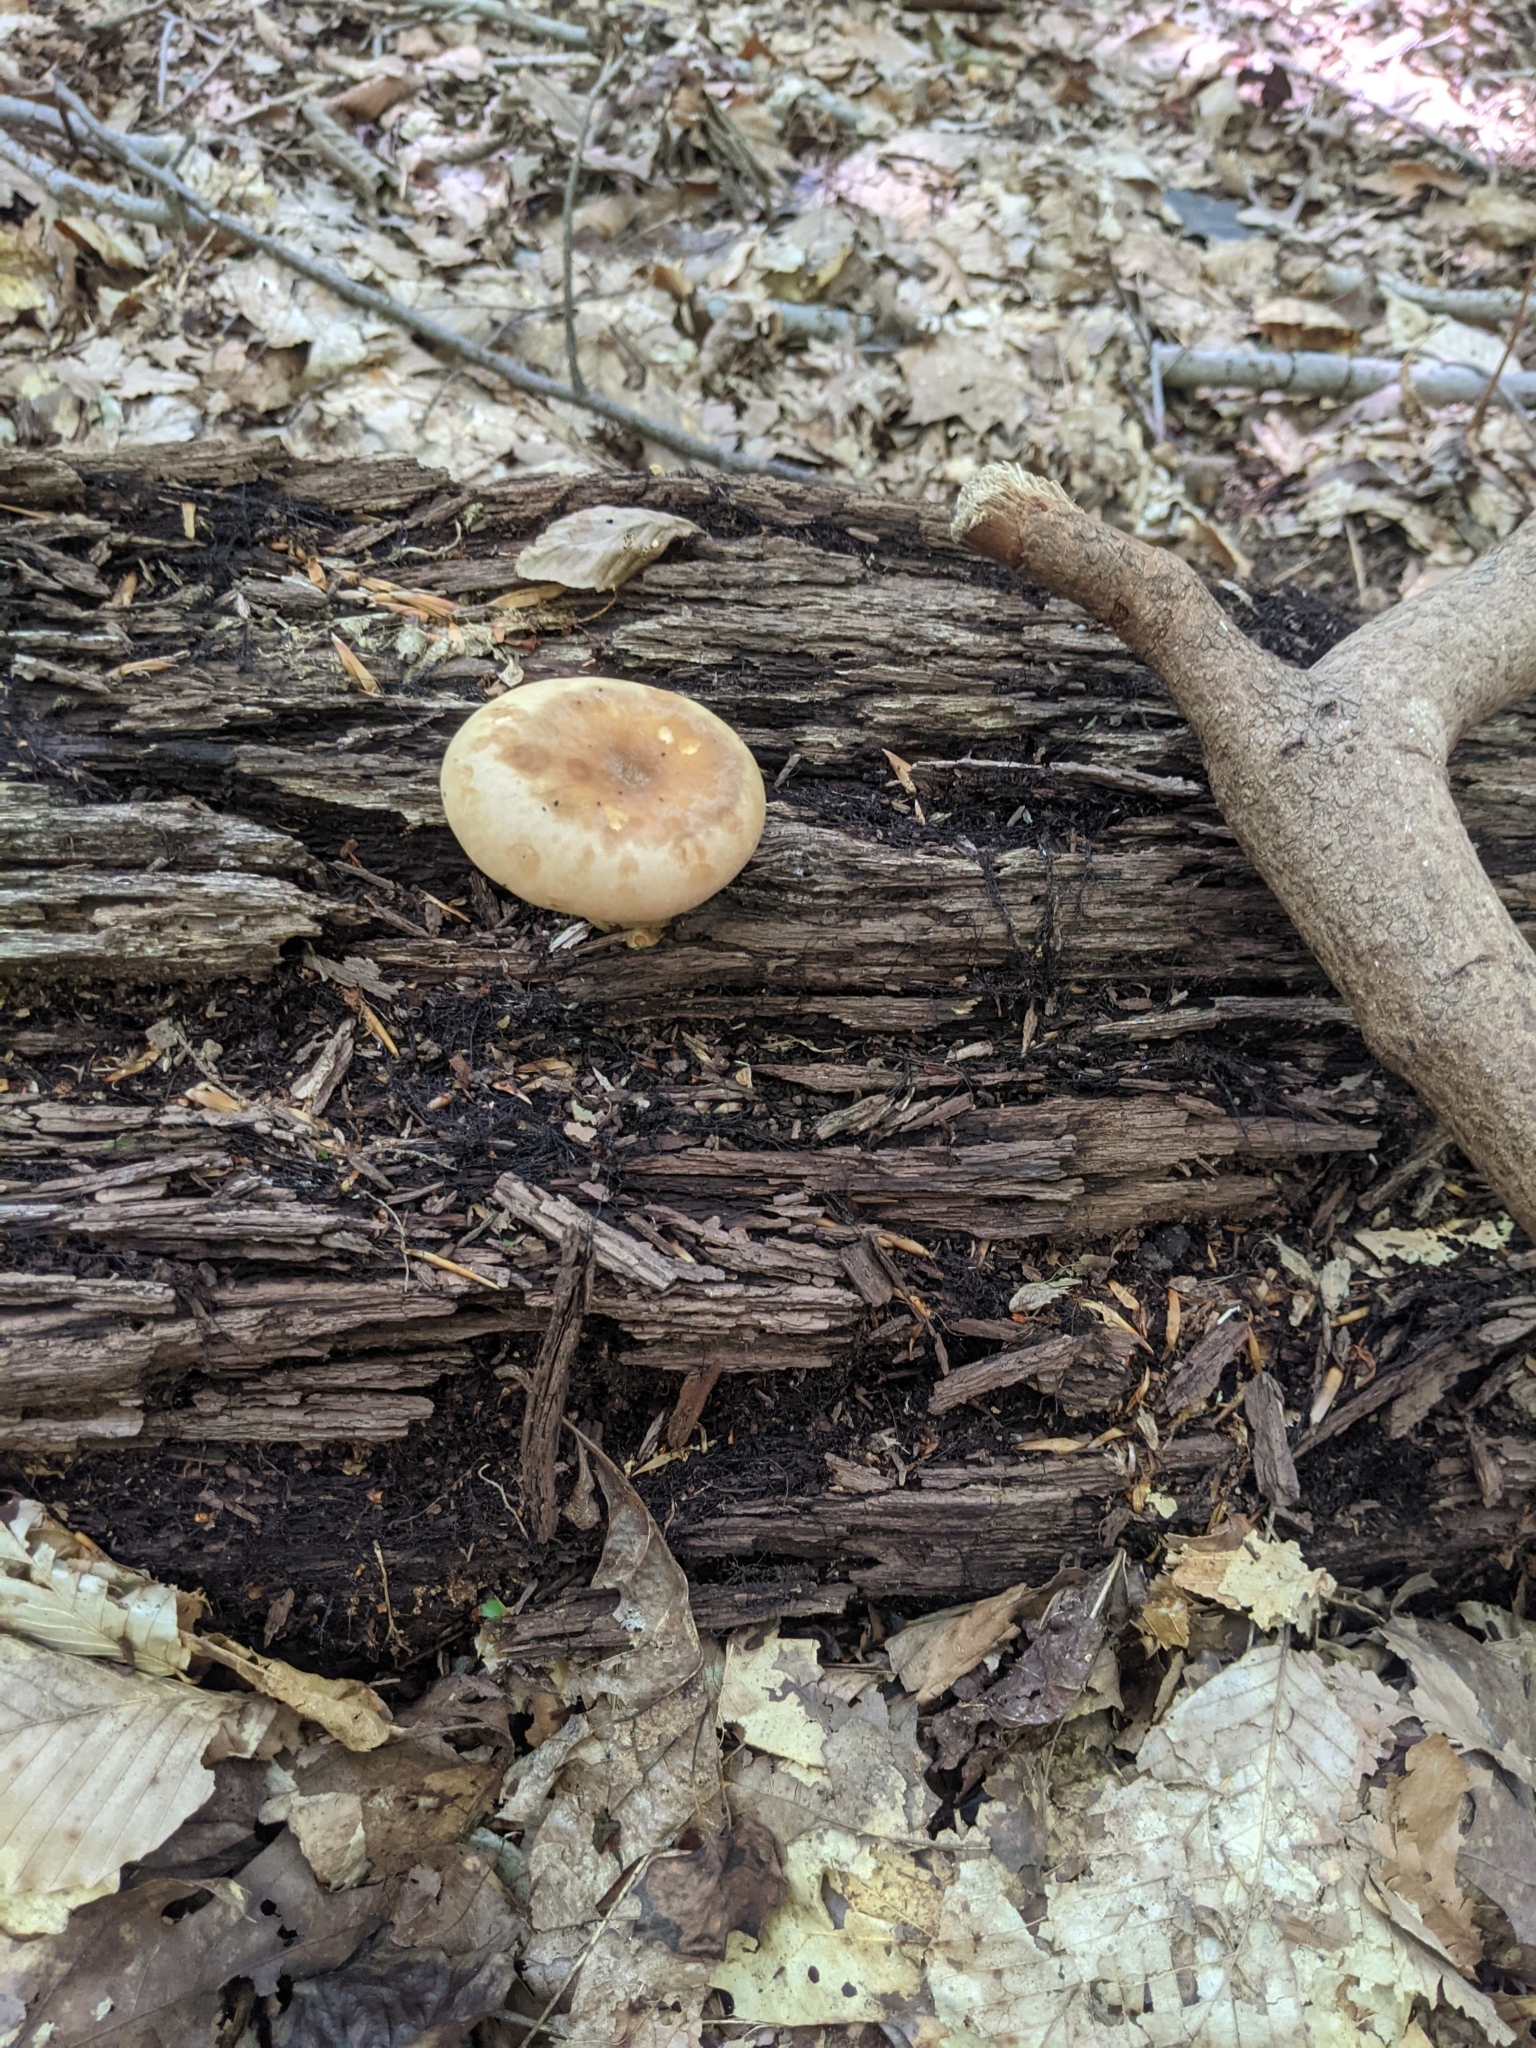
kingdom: Fungi
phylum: Basidiomycota
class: Agaricomycetes
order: Boletales
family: Tapinellaceae
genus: Tapinella
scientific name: Tapinella atrotomentosa
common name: Velvet rollrim
